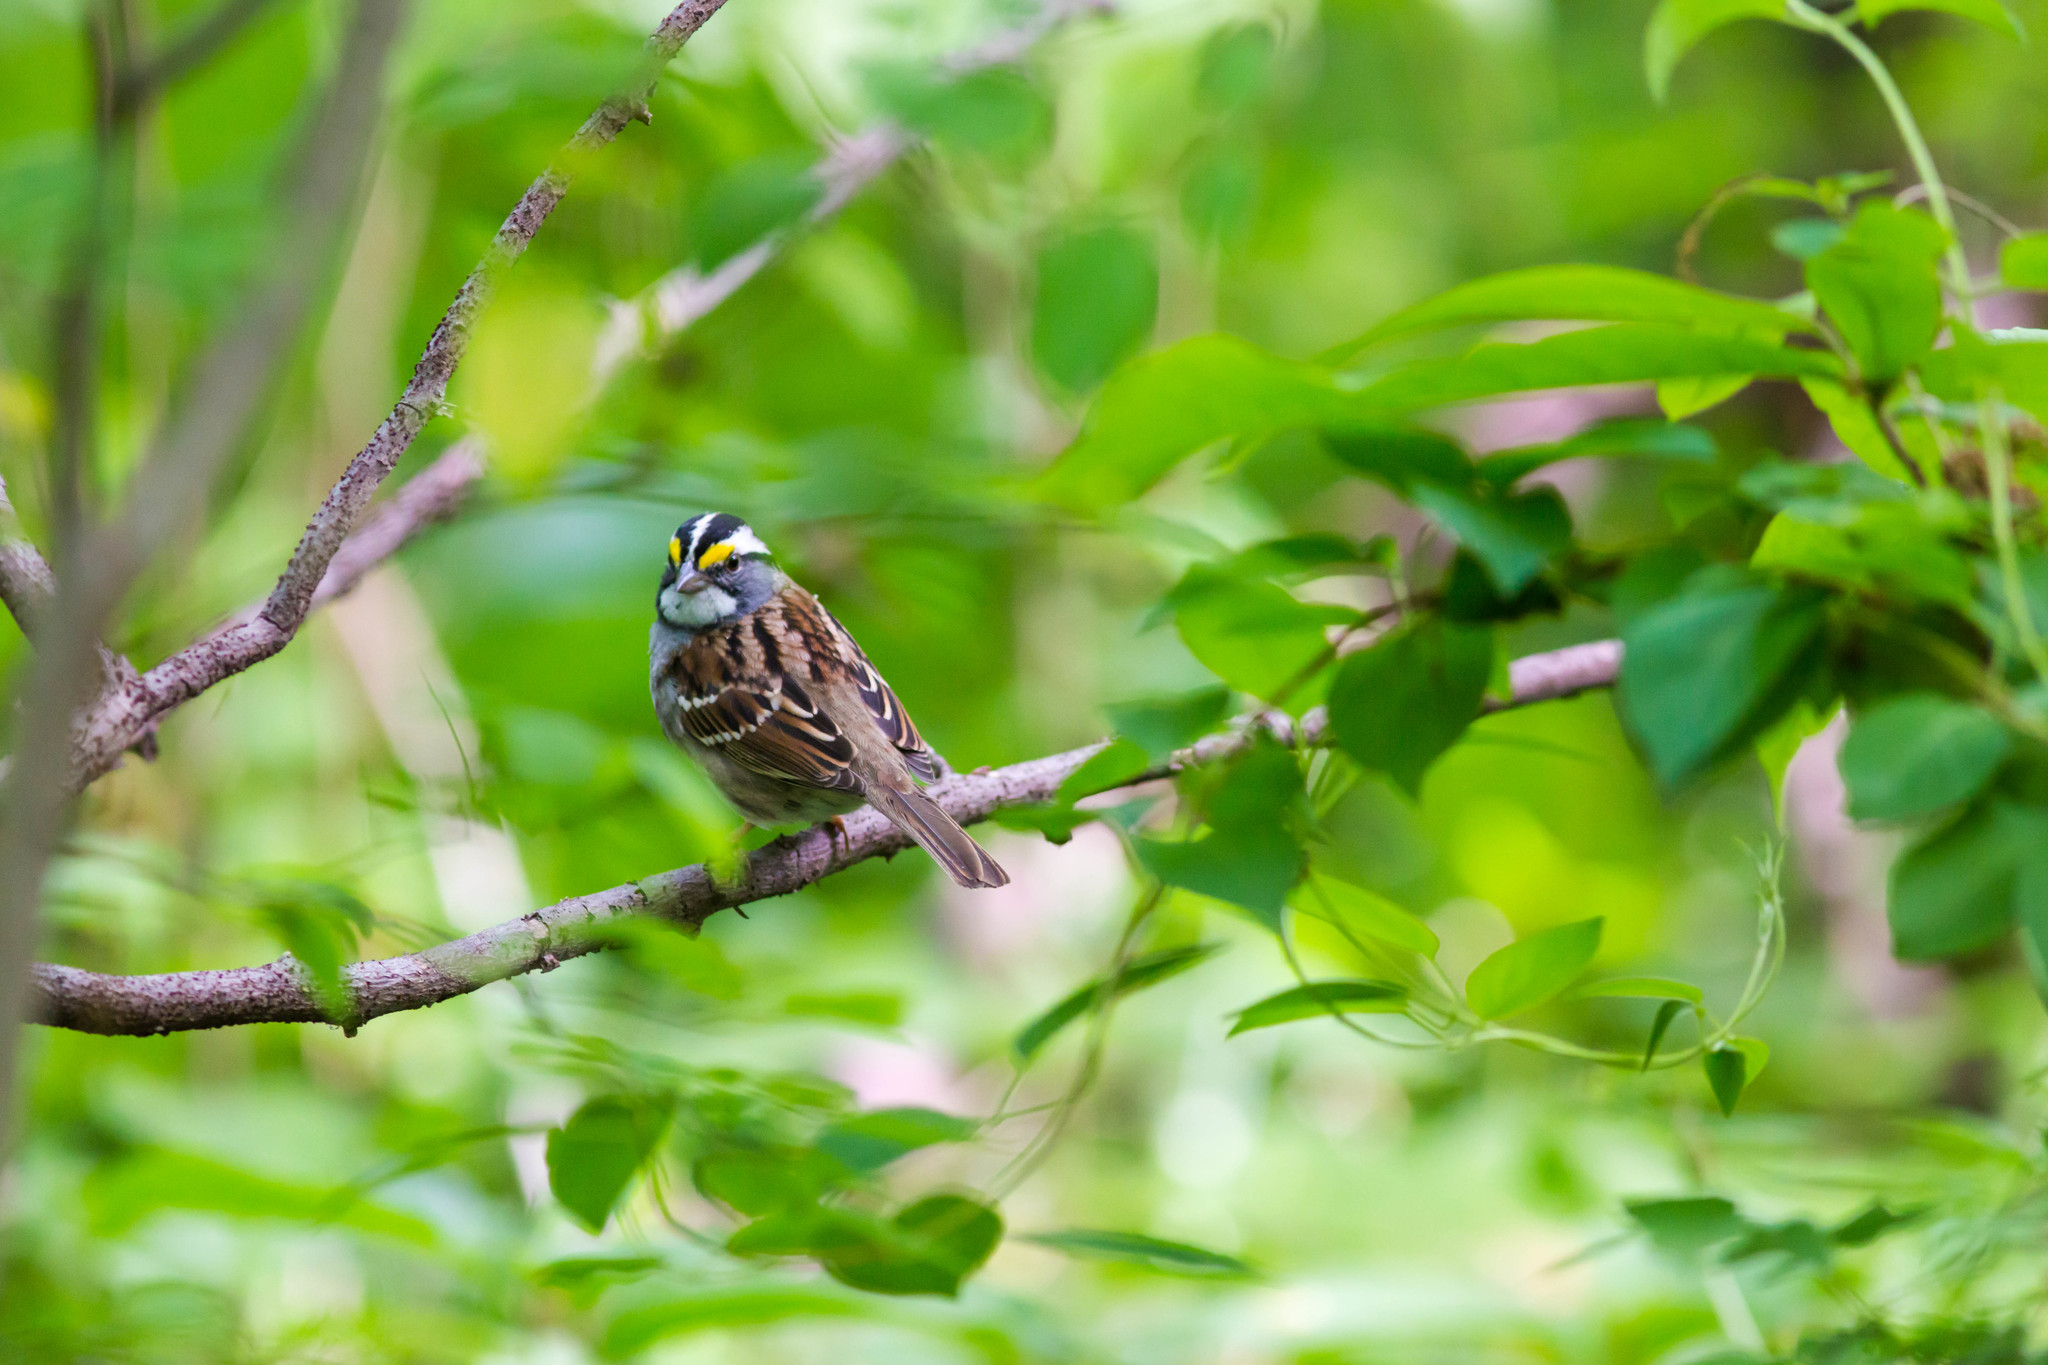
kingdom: Animalia
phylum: Chordata
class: Aves
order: Passeriformes
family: Passerellidae
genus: Zonotrichia
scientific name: Zonotrichia albicollis
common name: White-throated sparrow
